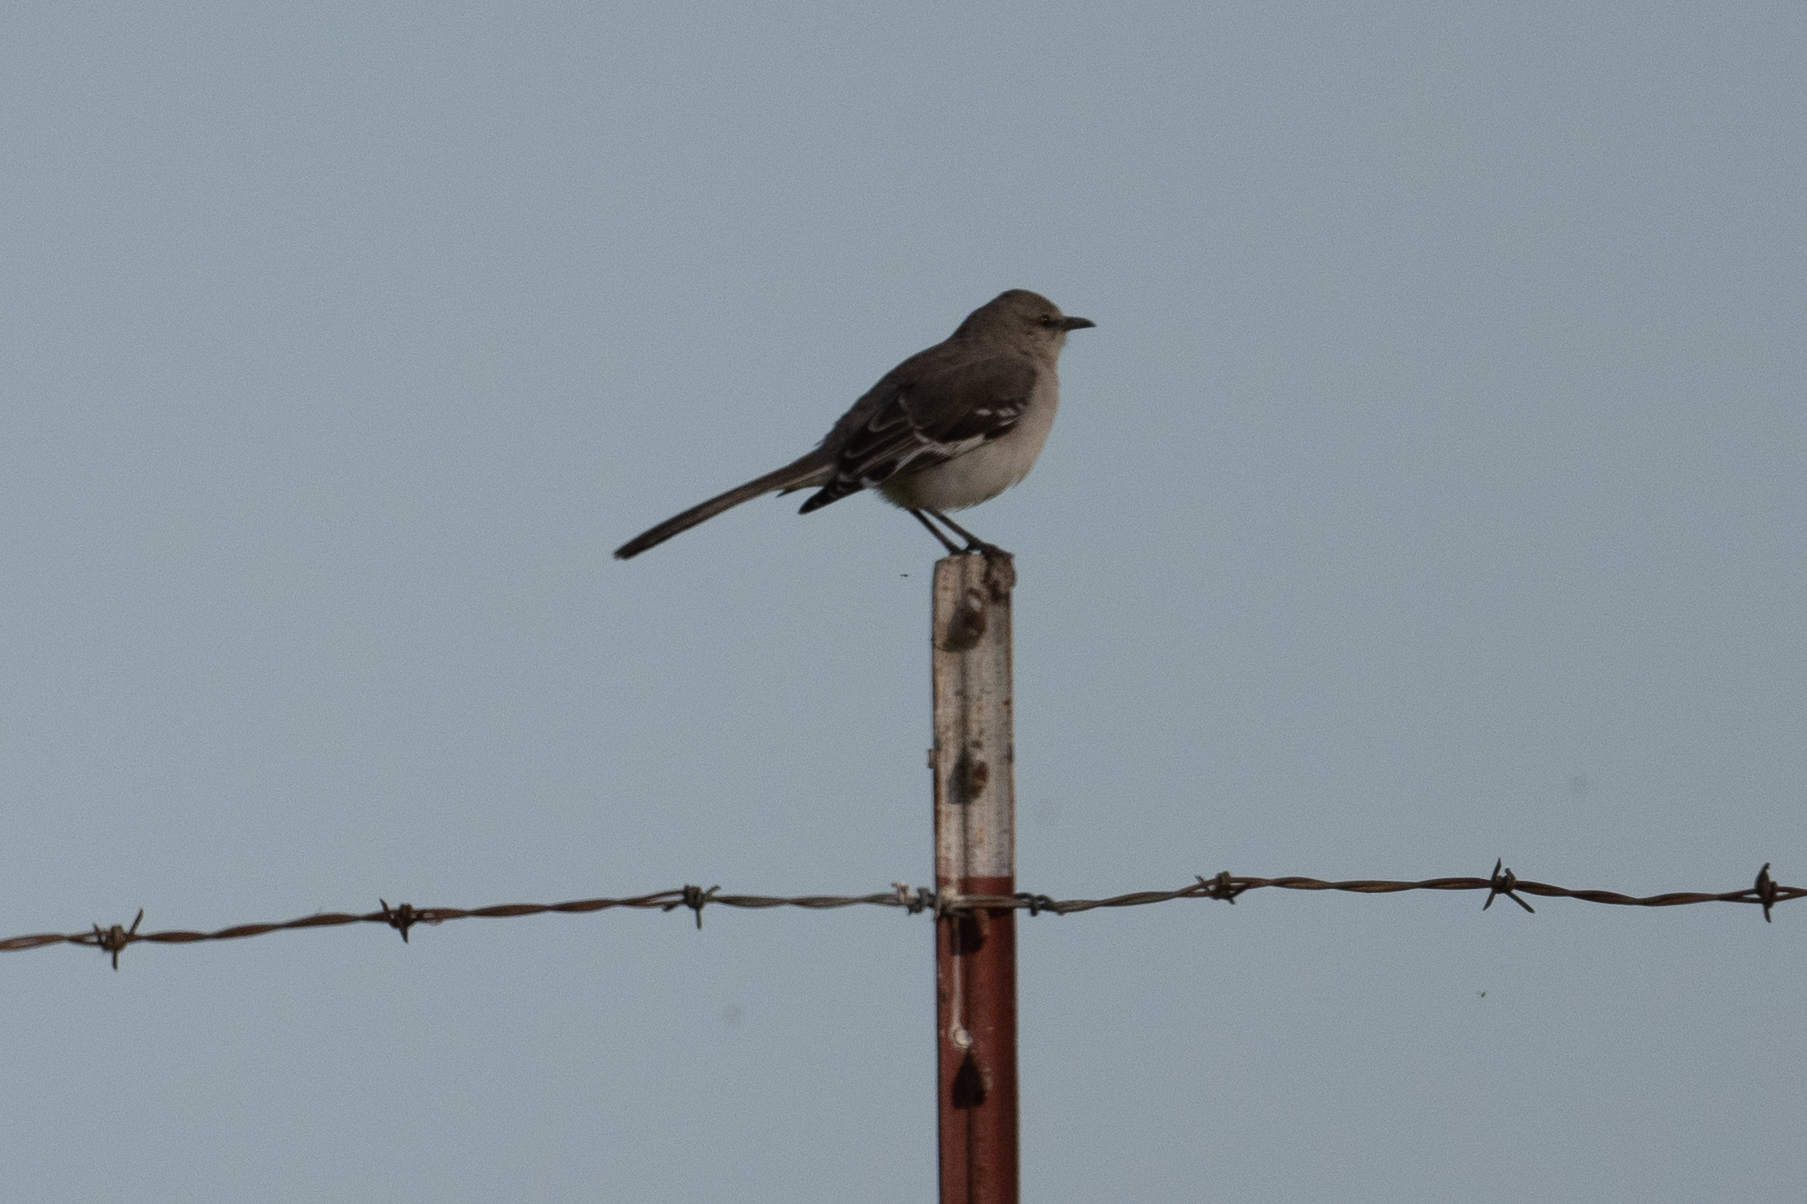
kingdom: Animalia
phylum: Chordata
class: Aves
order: Passeriformes
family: Mimidae
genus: Mimus
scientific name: Mimus polyglottos
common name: Northern mockingbird
